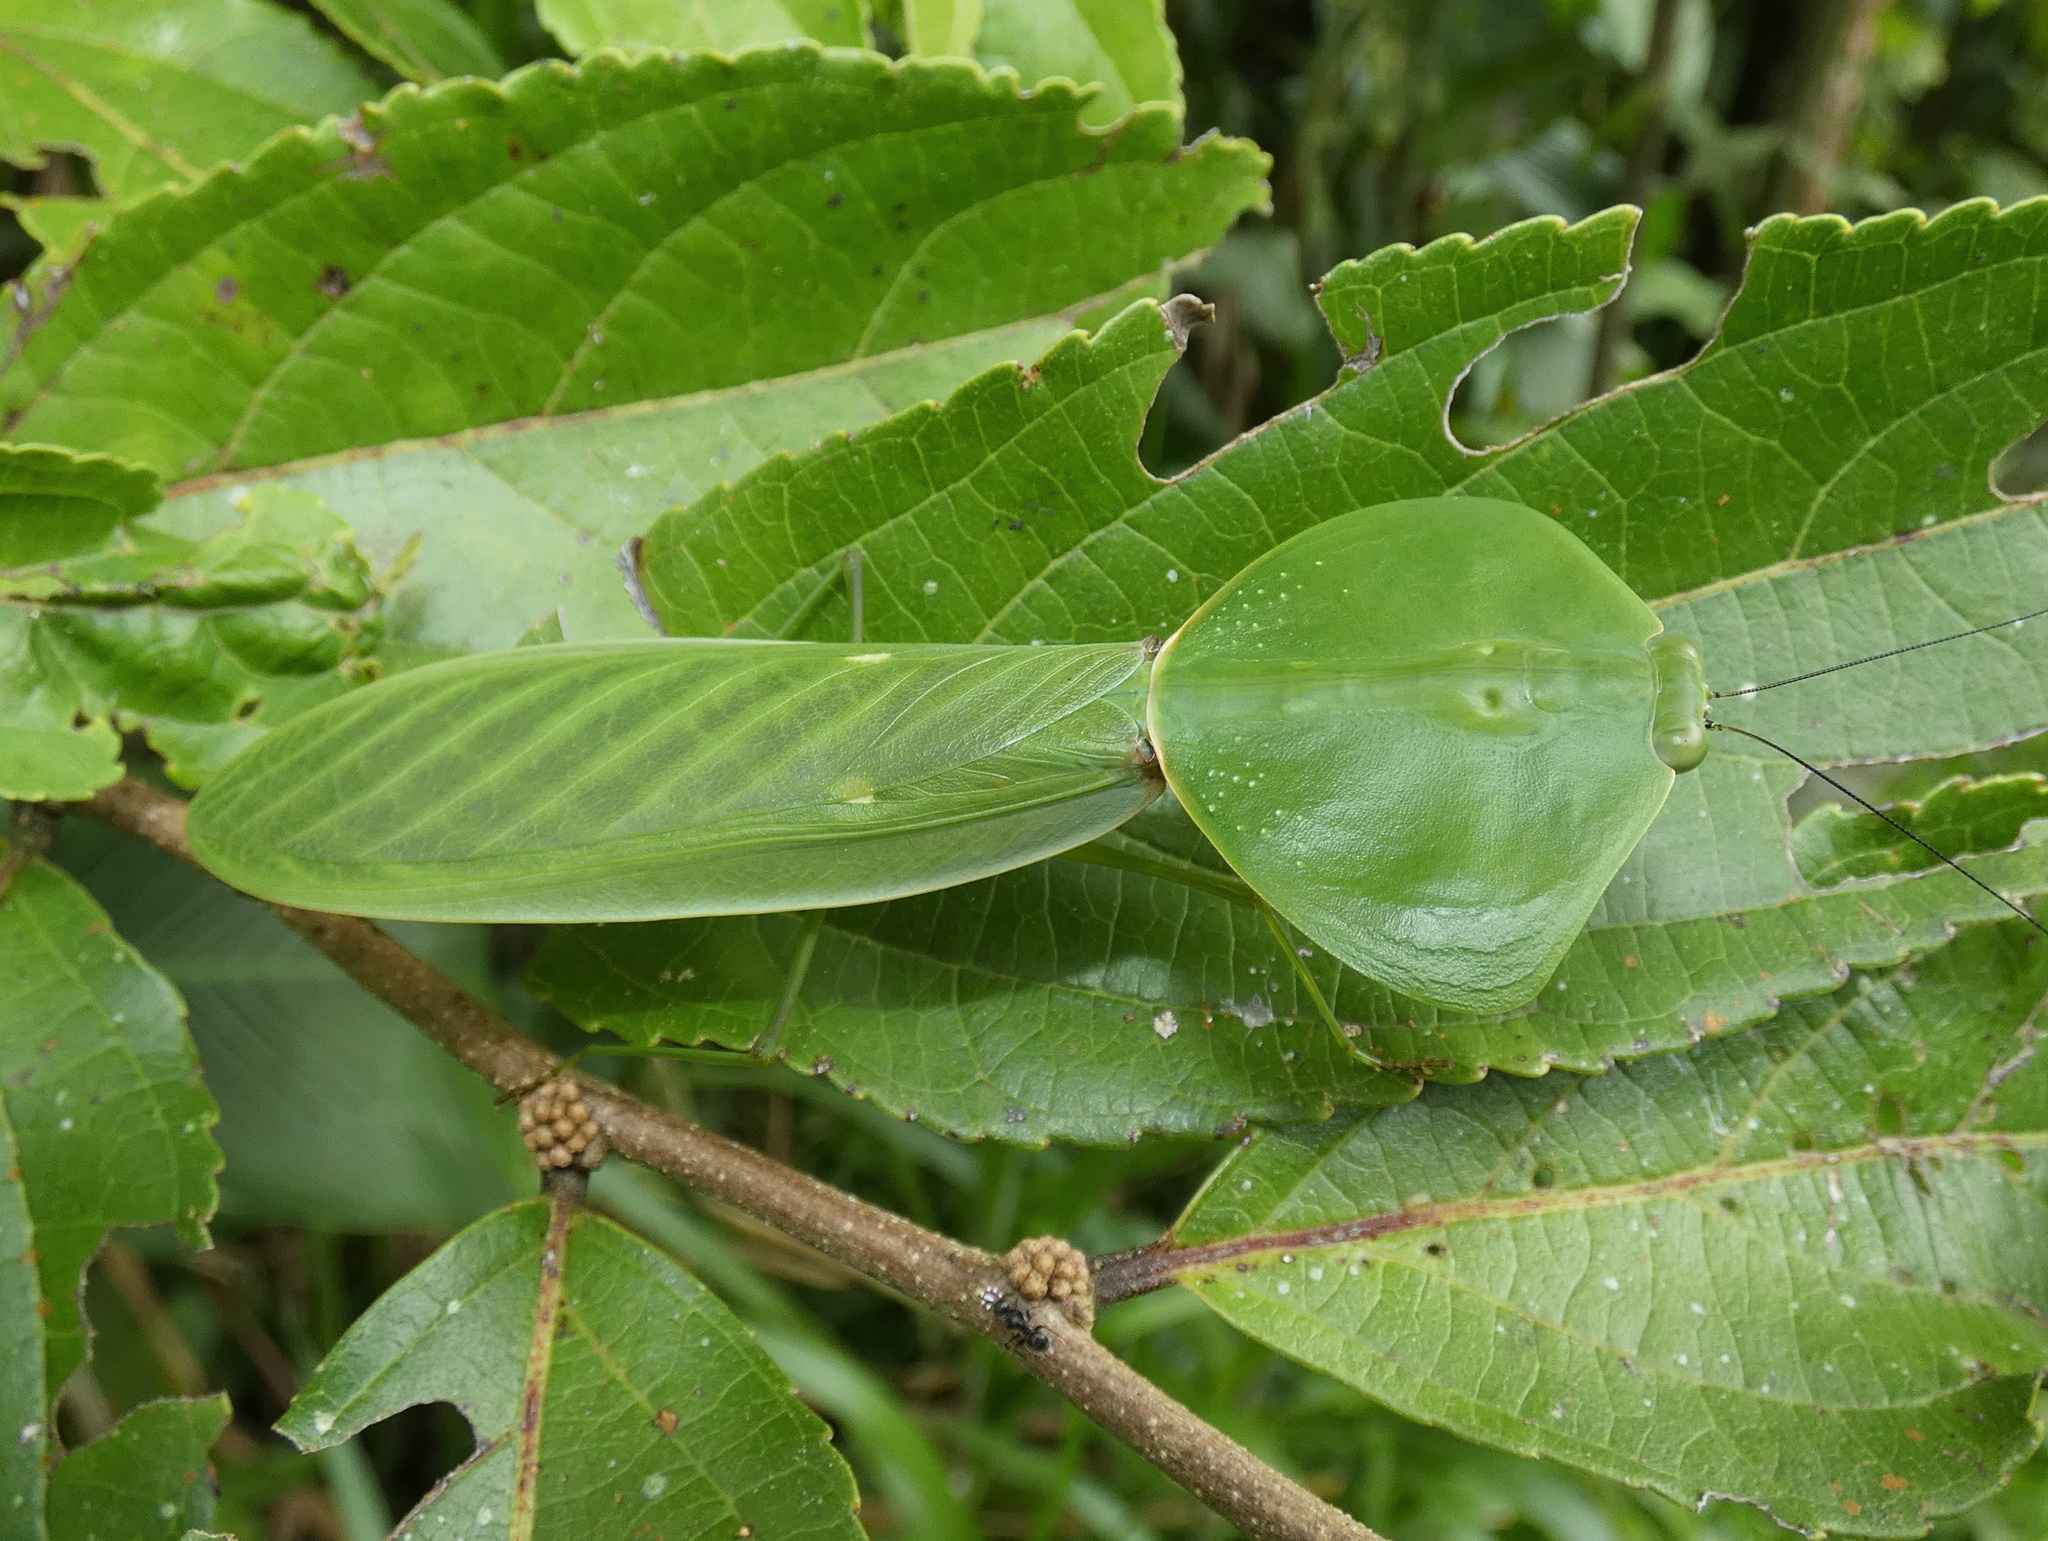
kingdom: Animalia
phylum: Arthropoda
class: Insecta
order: Mantodea
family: Mantidae
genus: Choeradodis
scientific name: Choeradodis rhombicollis
